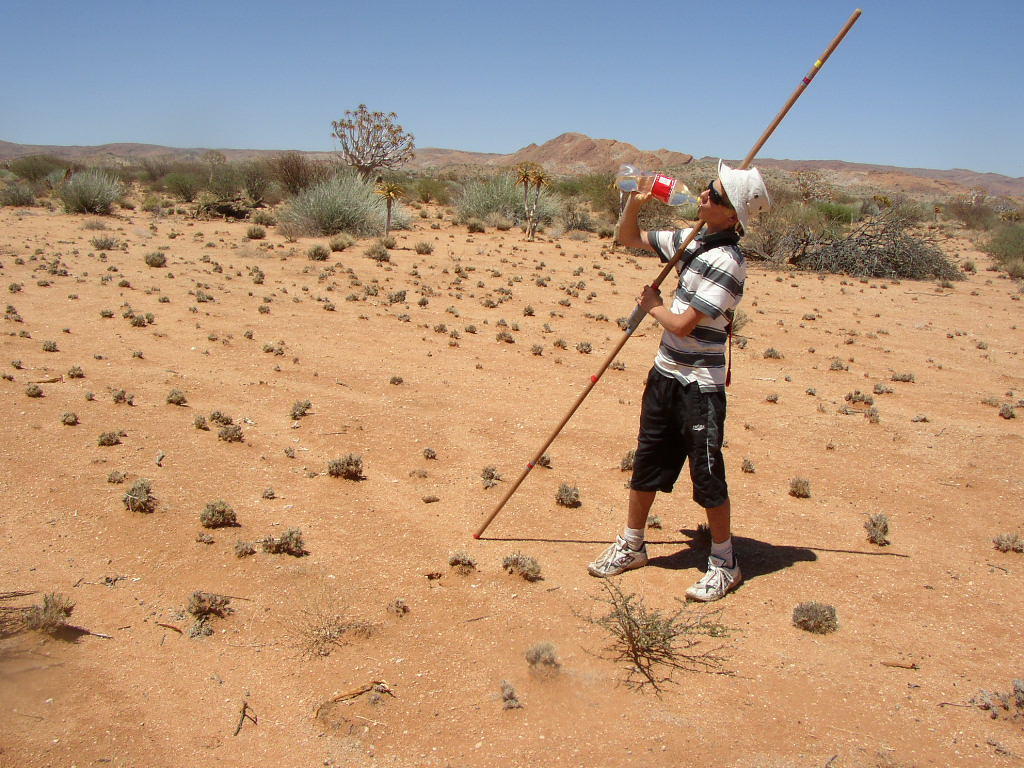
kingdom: Plantae
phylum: Tracheophyta
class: Liliopsida
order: Asparagales
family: Asphodelaceae
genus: Aloidendron
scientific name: Aloidendron dichotomum
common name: Quiver tree
